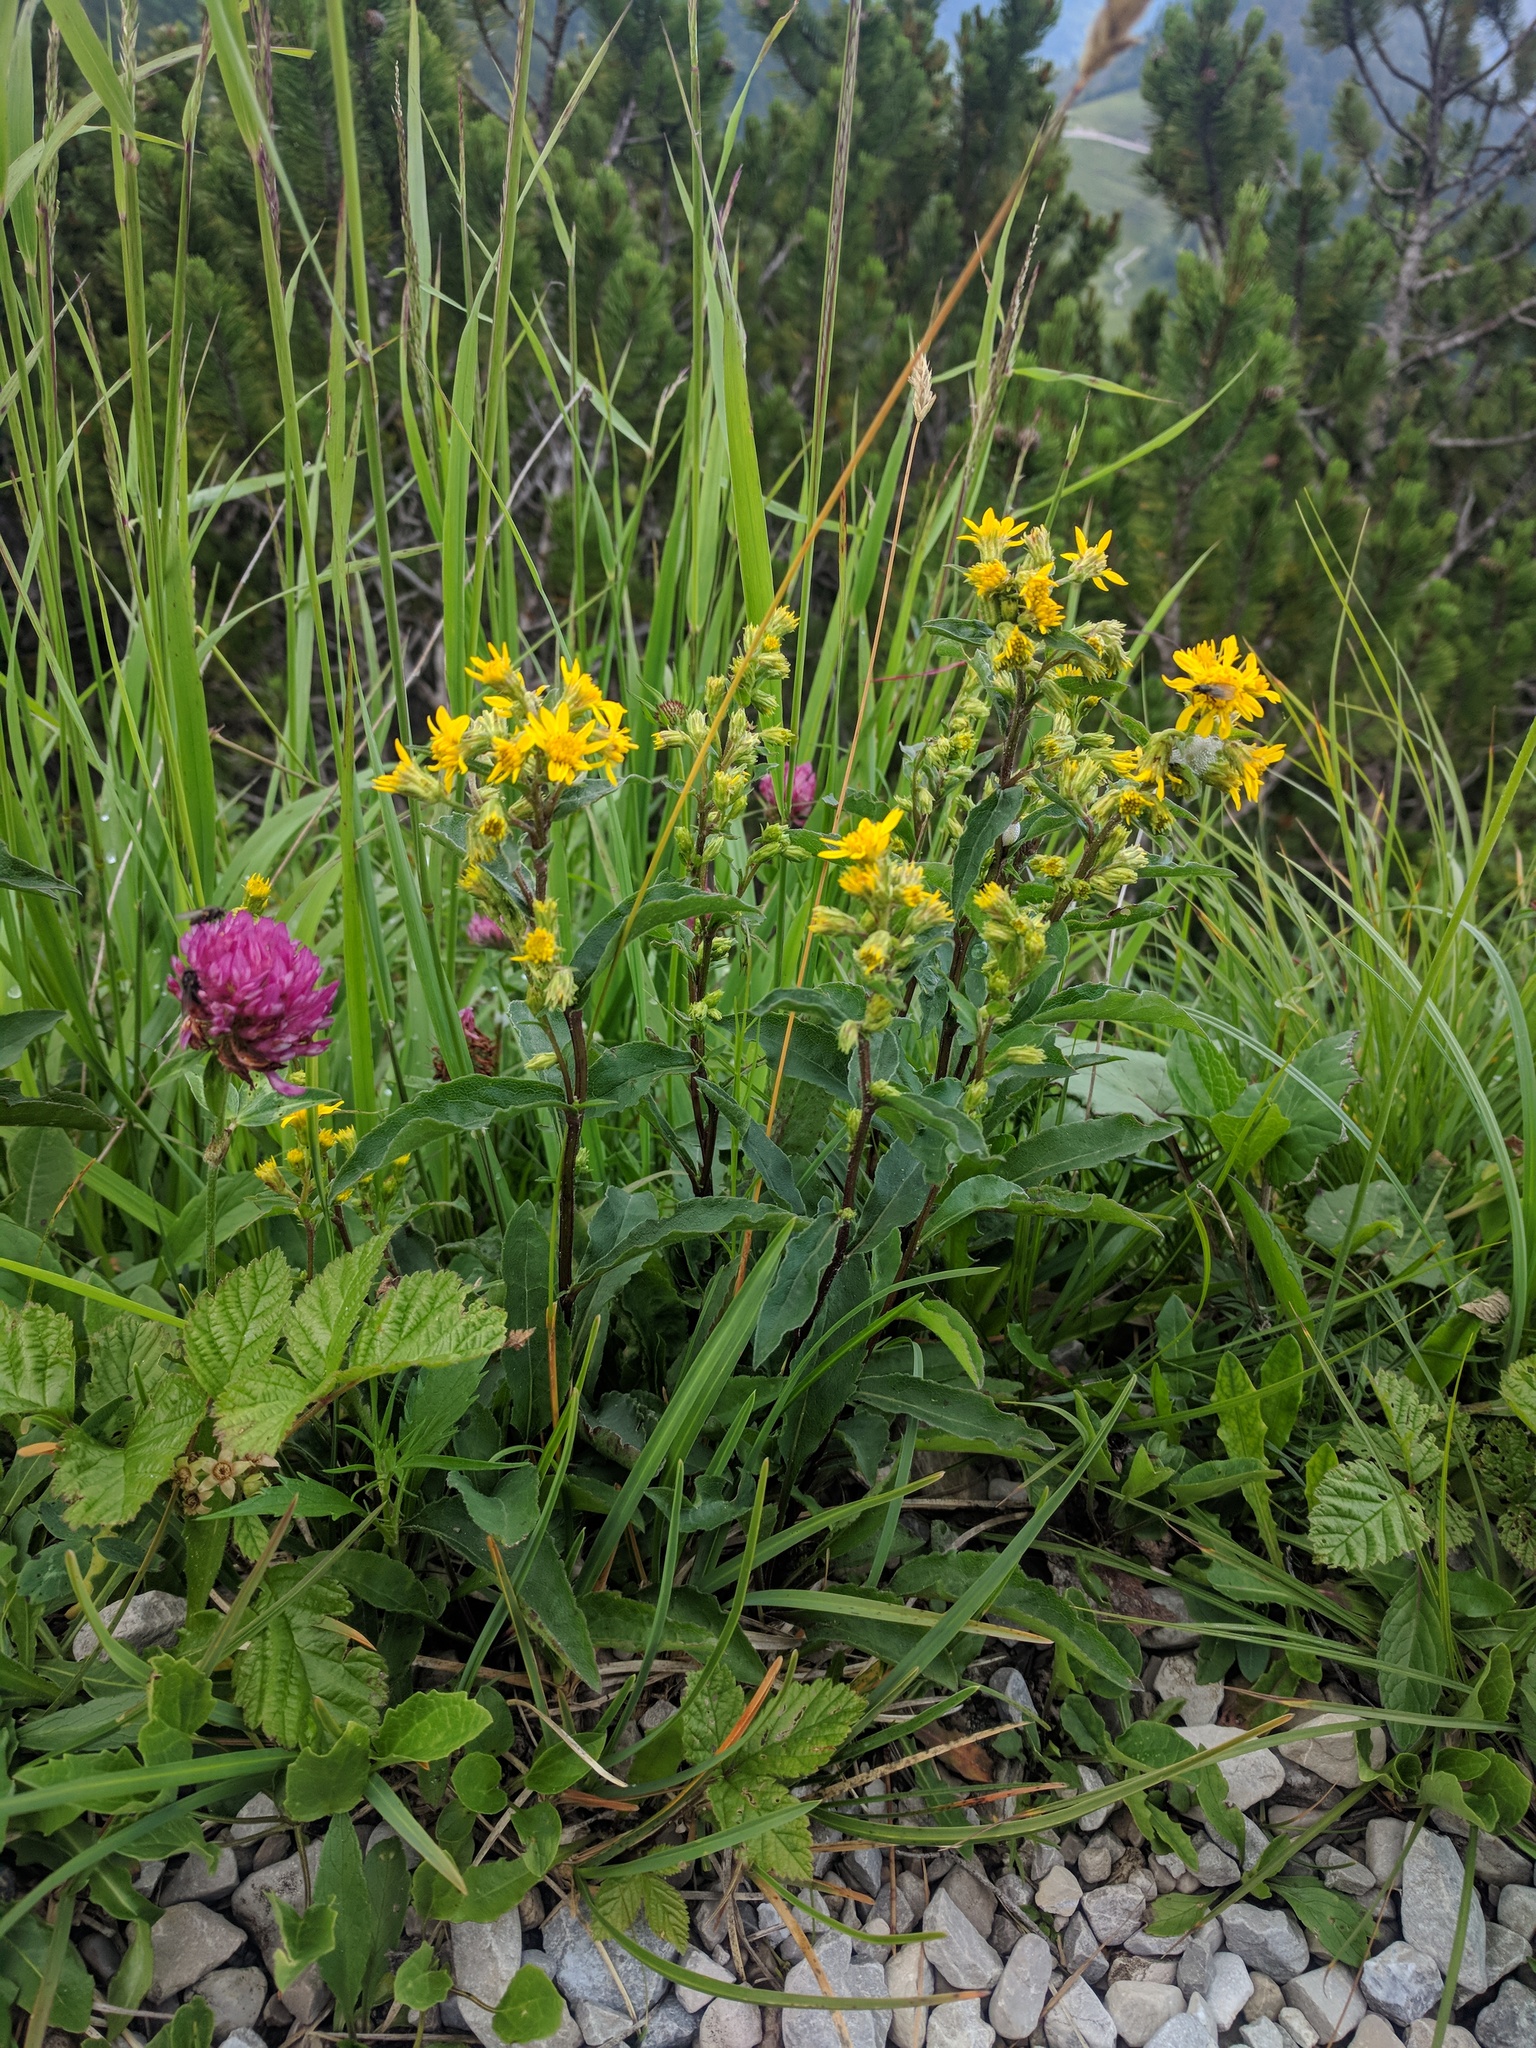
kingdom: Plantae
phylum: Tracheophyta
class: Magnoliopsida
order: Asterales
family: Asteraceae
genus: Solidago
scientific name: Solidago virgaurea
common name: Goldenrod
